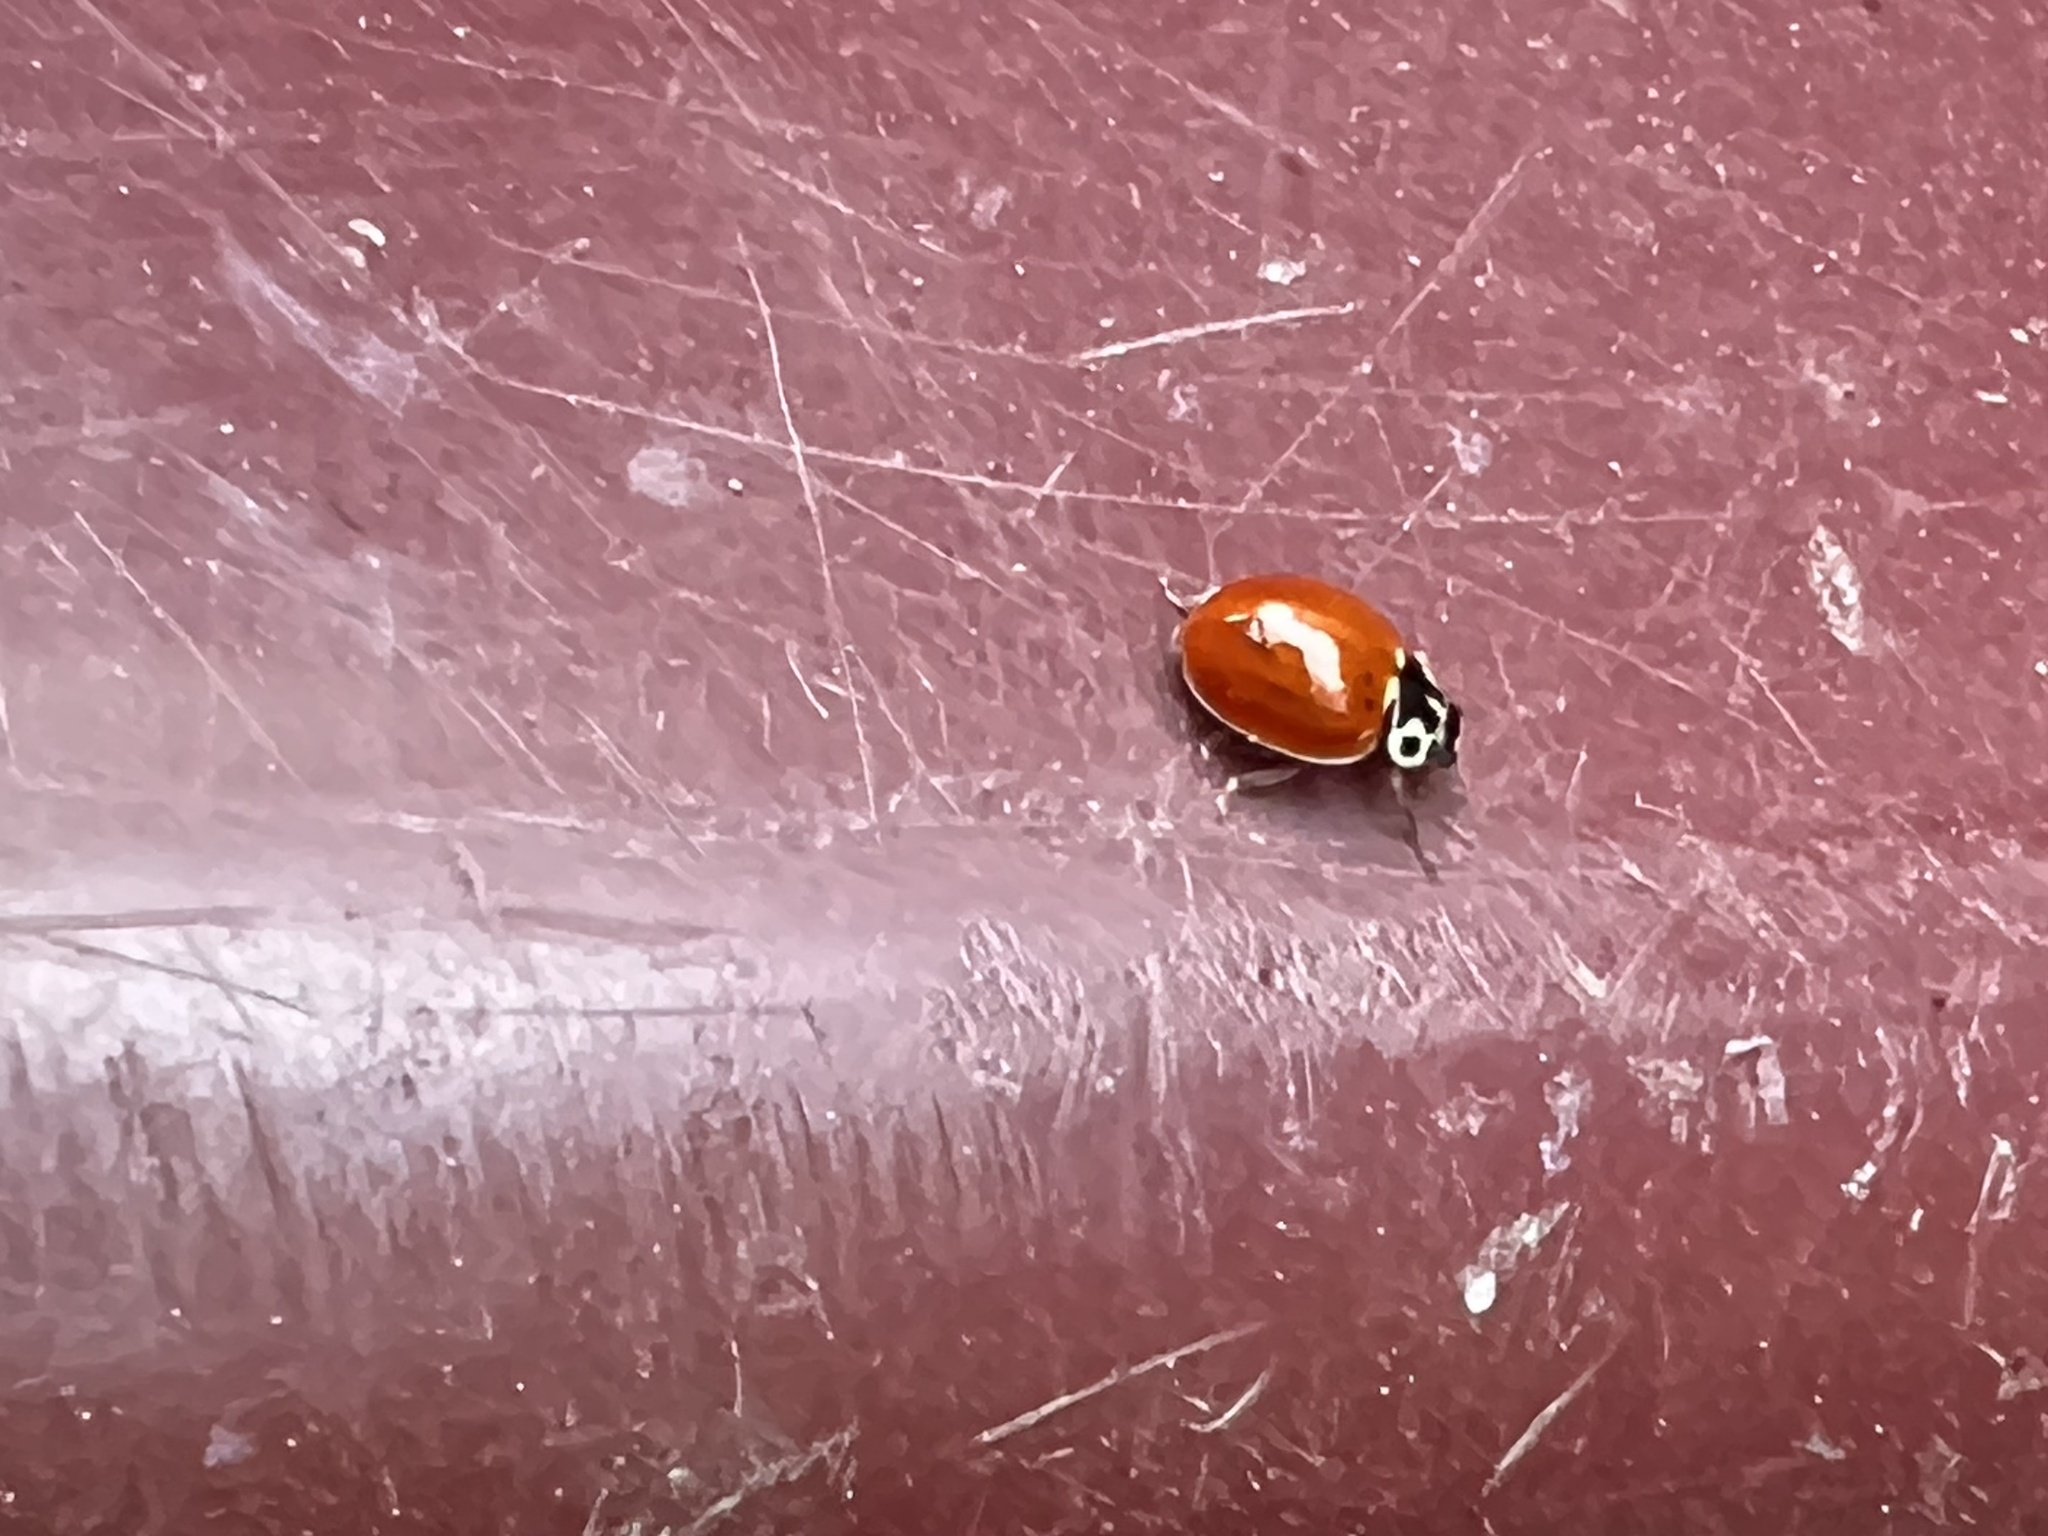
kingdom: Animalia
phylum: Arthropoda
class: Insecta
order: Coleoptera
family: Coccinellidae
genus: Cycloneda
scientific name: Cycloneda polita
